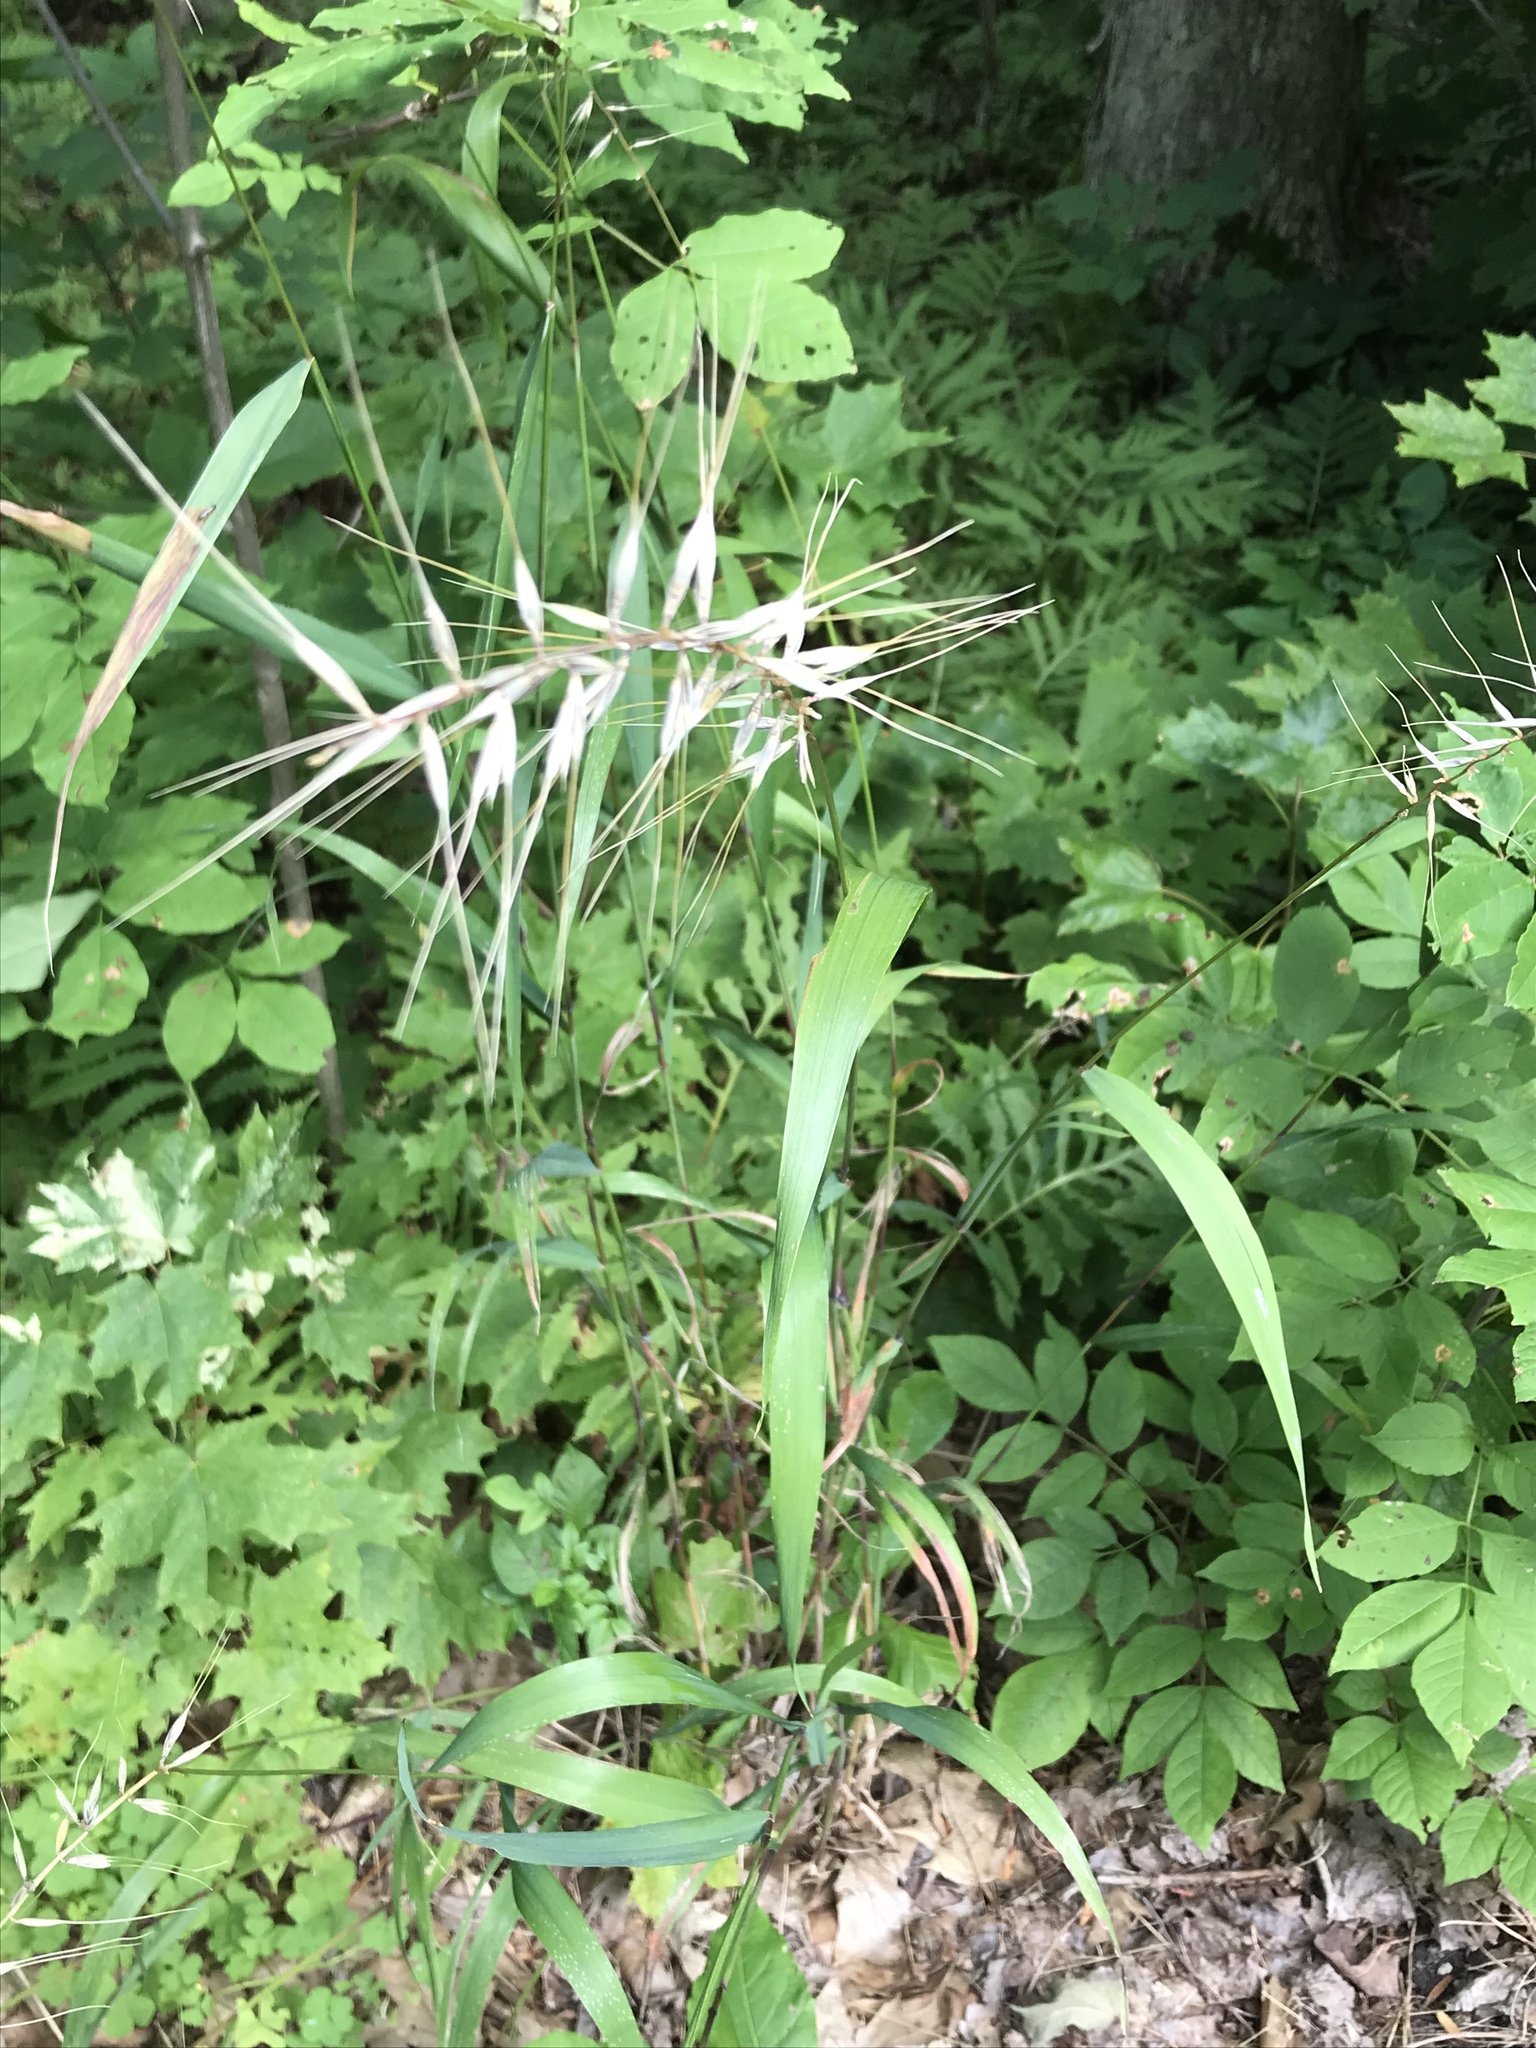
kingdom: Plantae
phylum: Tracheophyta
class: Liliopsida
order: Poales
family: Poaceae
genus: Elymus
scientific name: Elymus hystrix
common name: Bottlebrush grass
